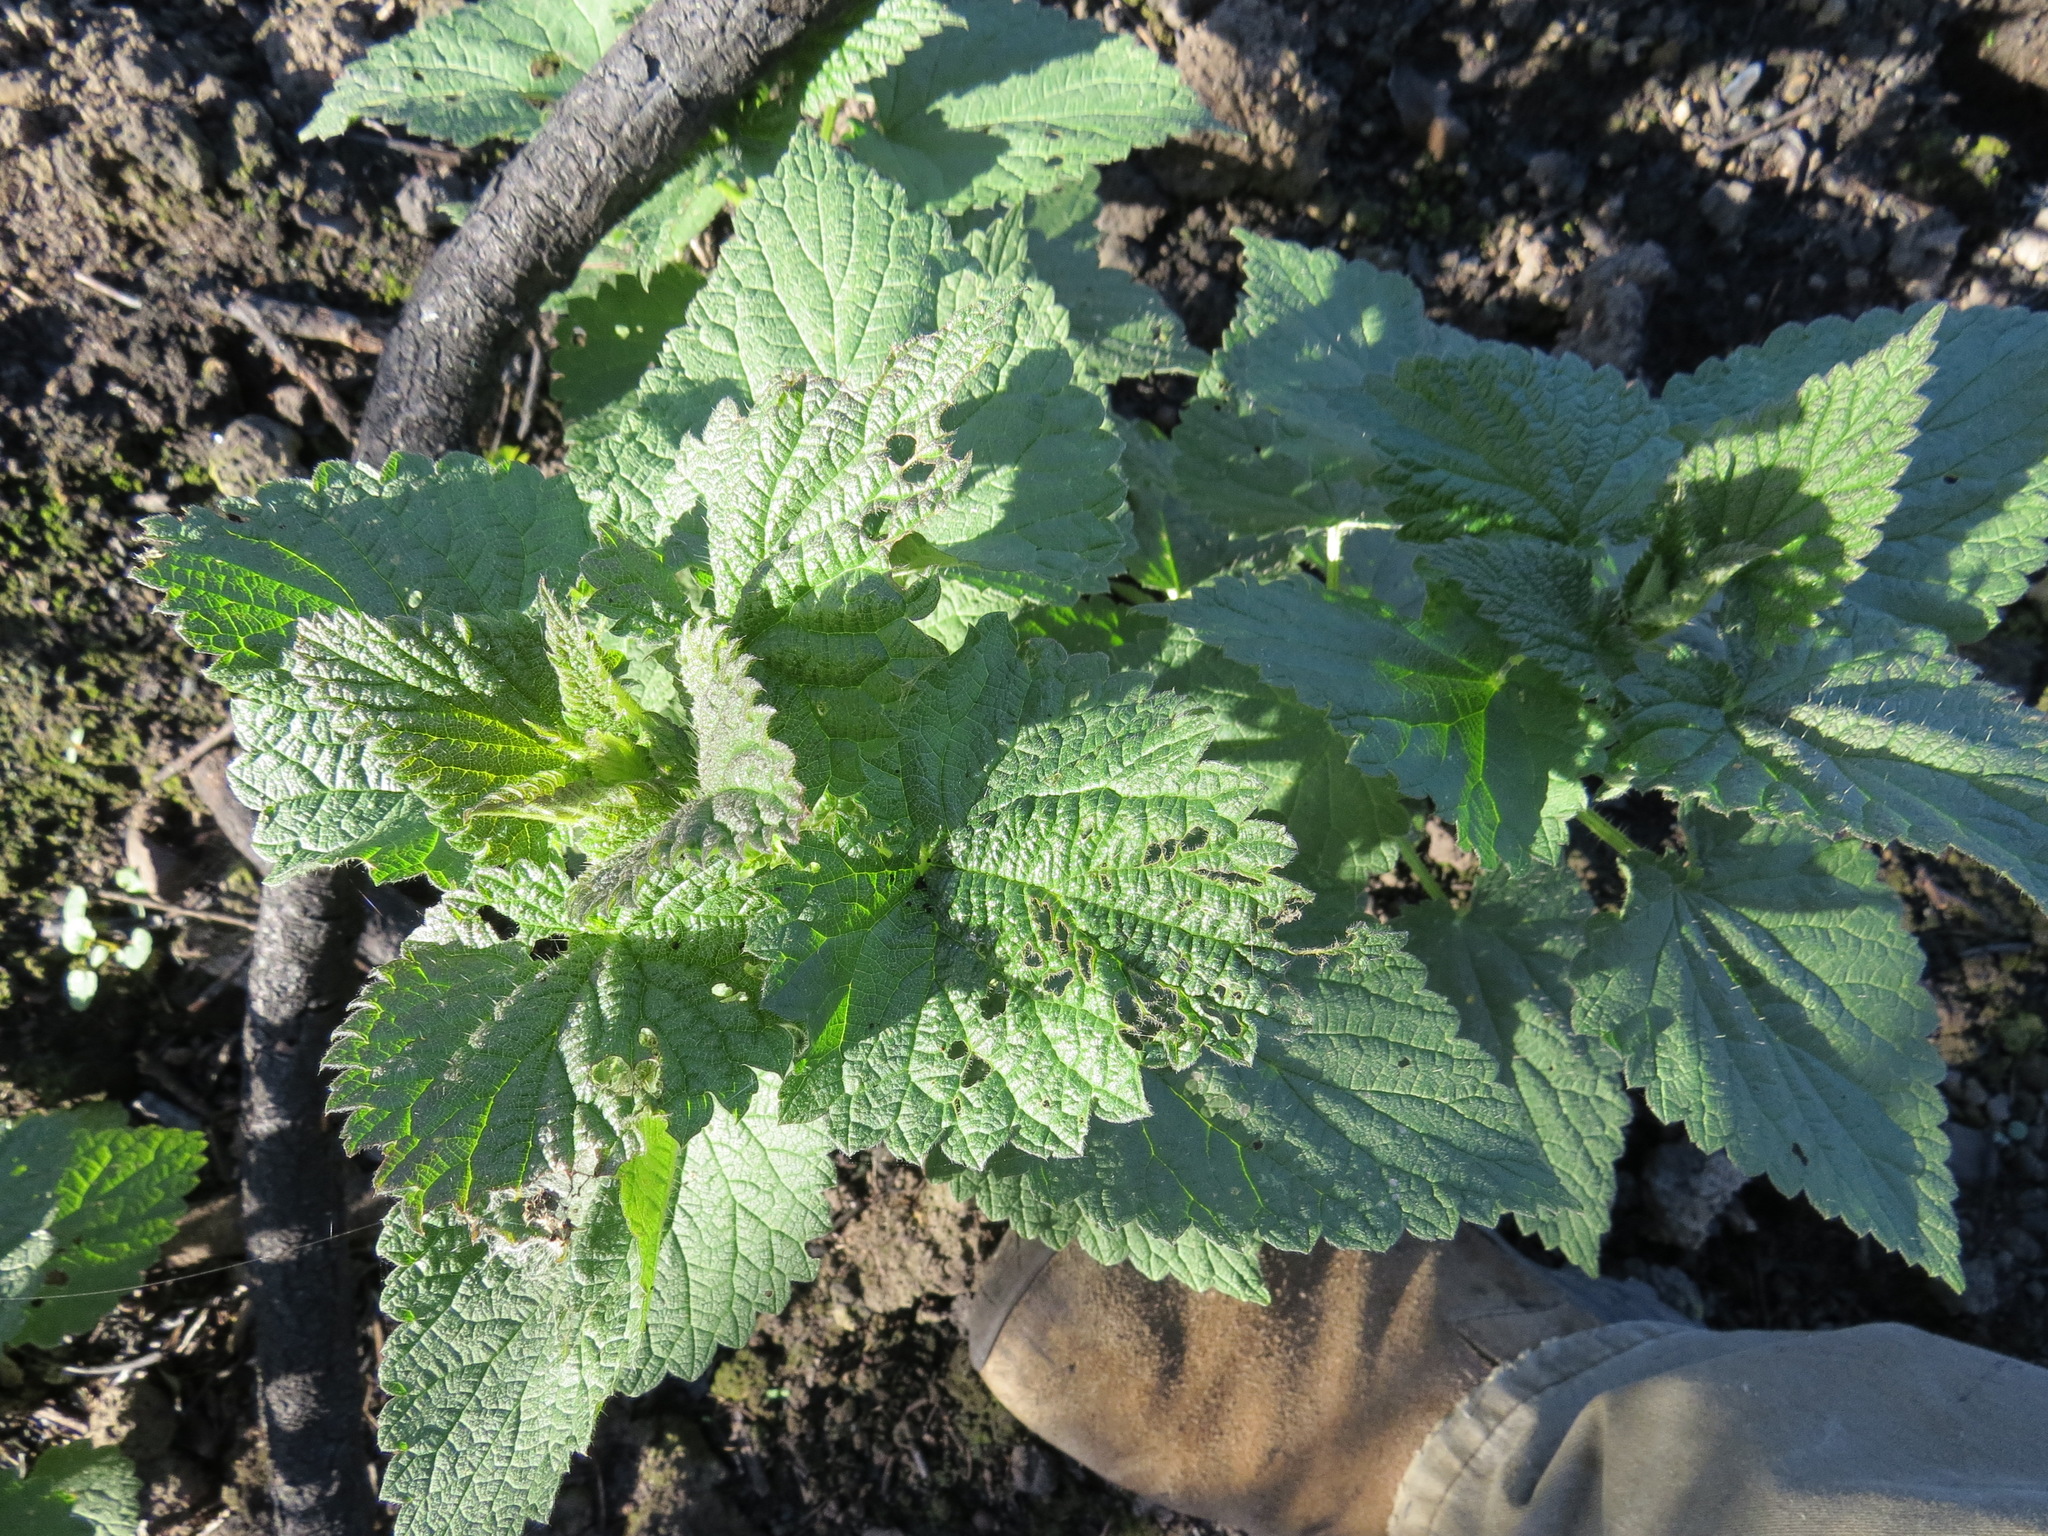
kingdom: Plantae
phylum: Tracheophyta
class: Magnoliopsida
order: Rosales
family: Urticaceae
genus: Urtica
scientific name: Urtica dioica
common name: Common nettle
